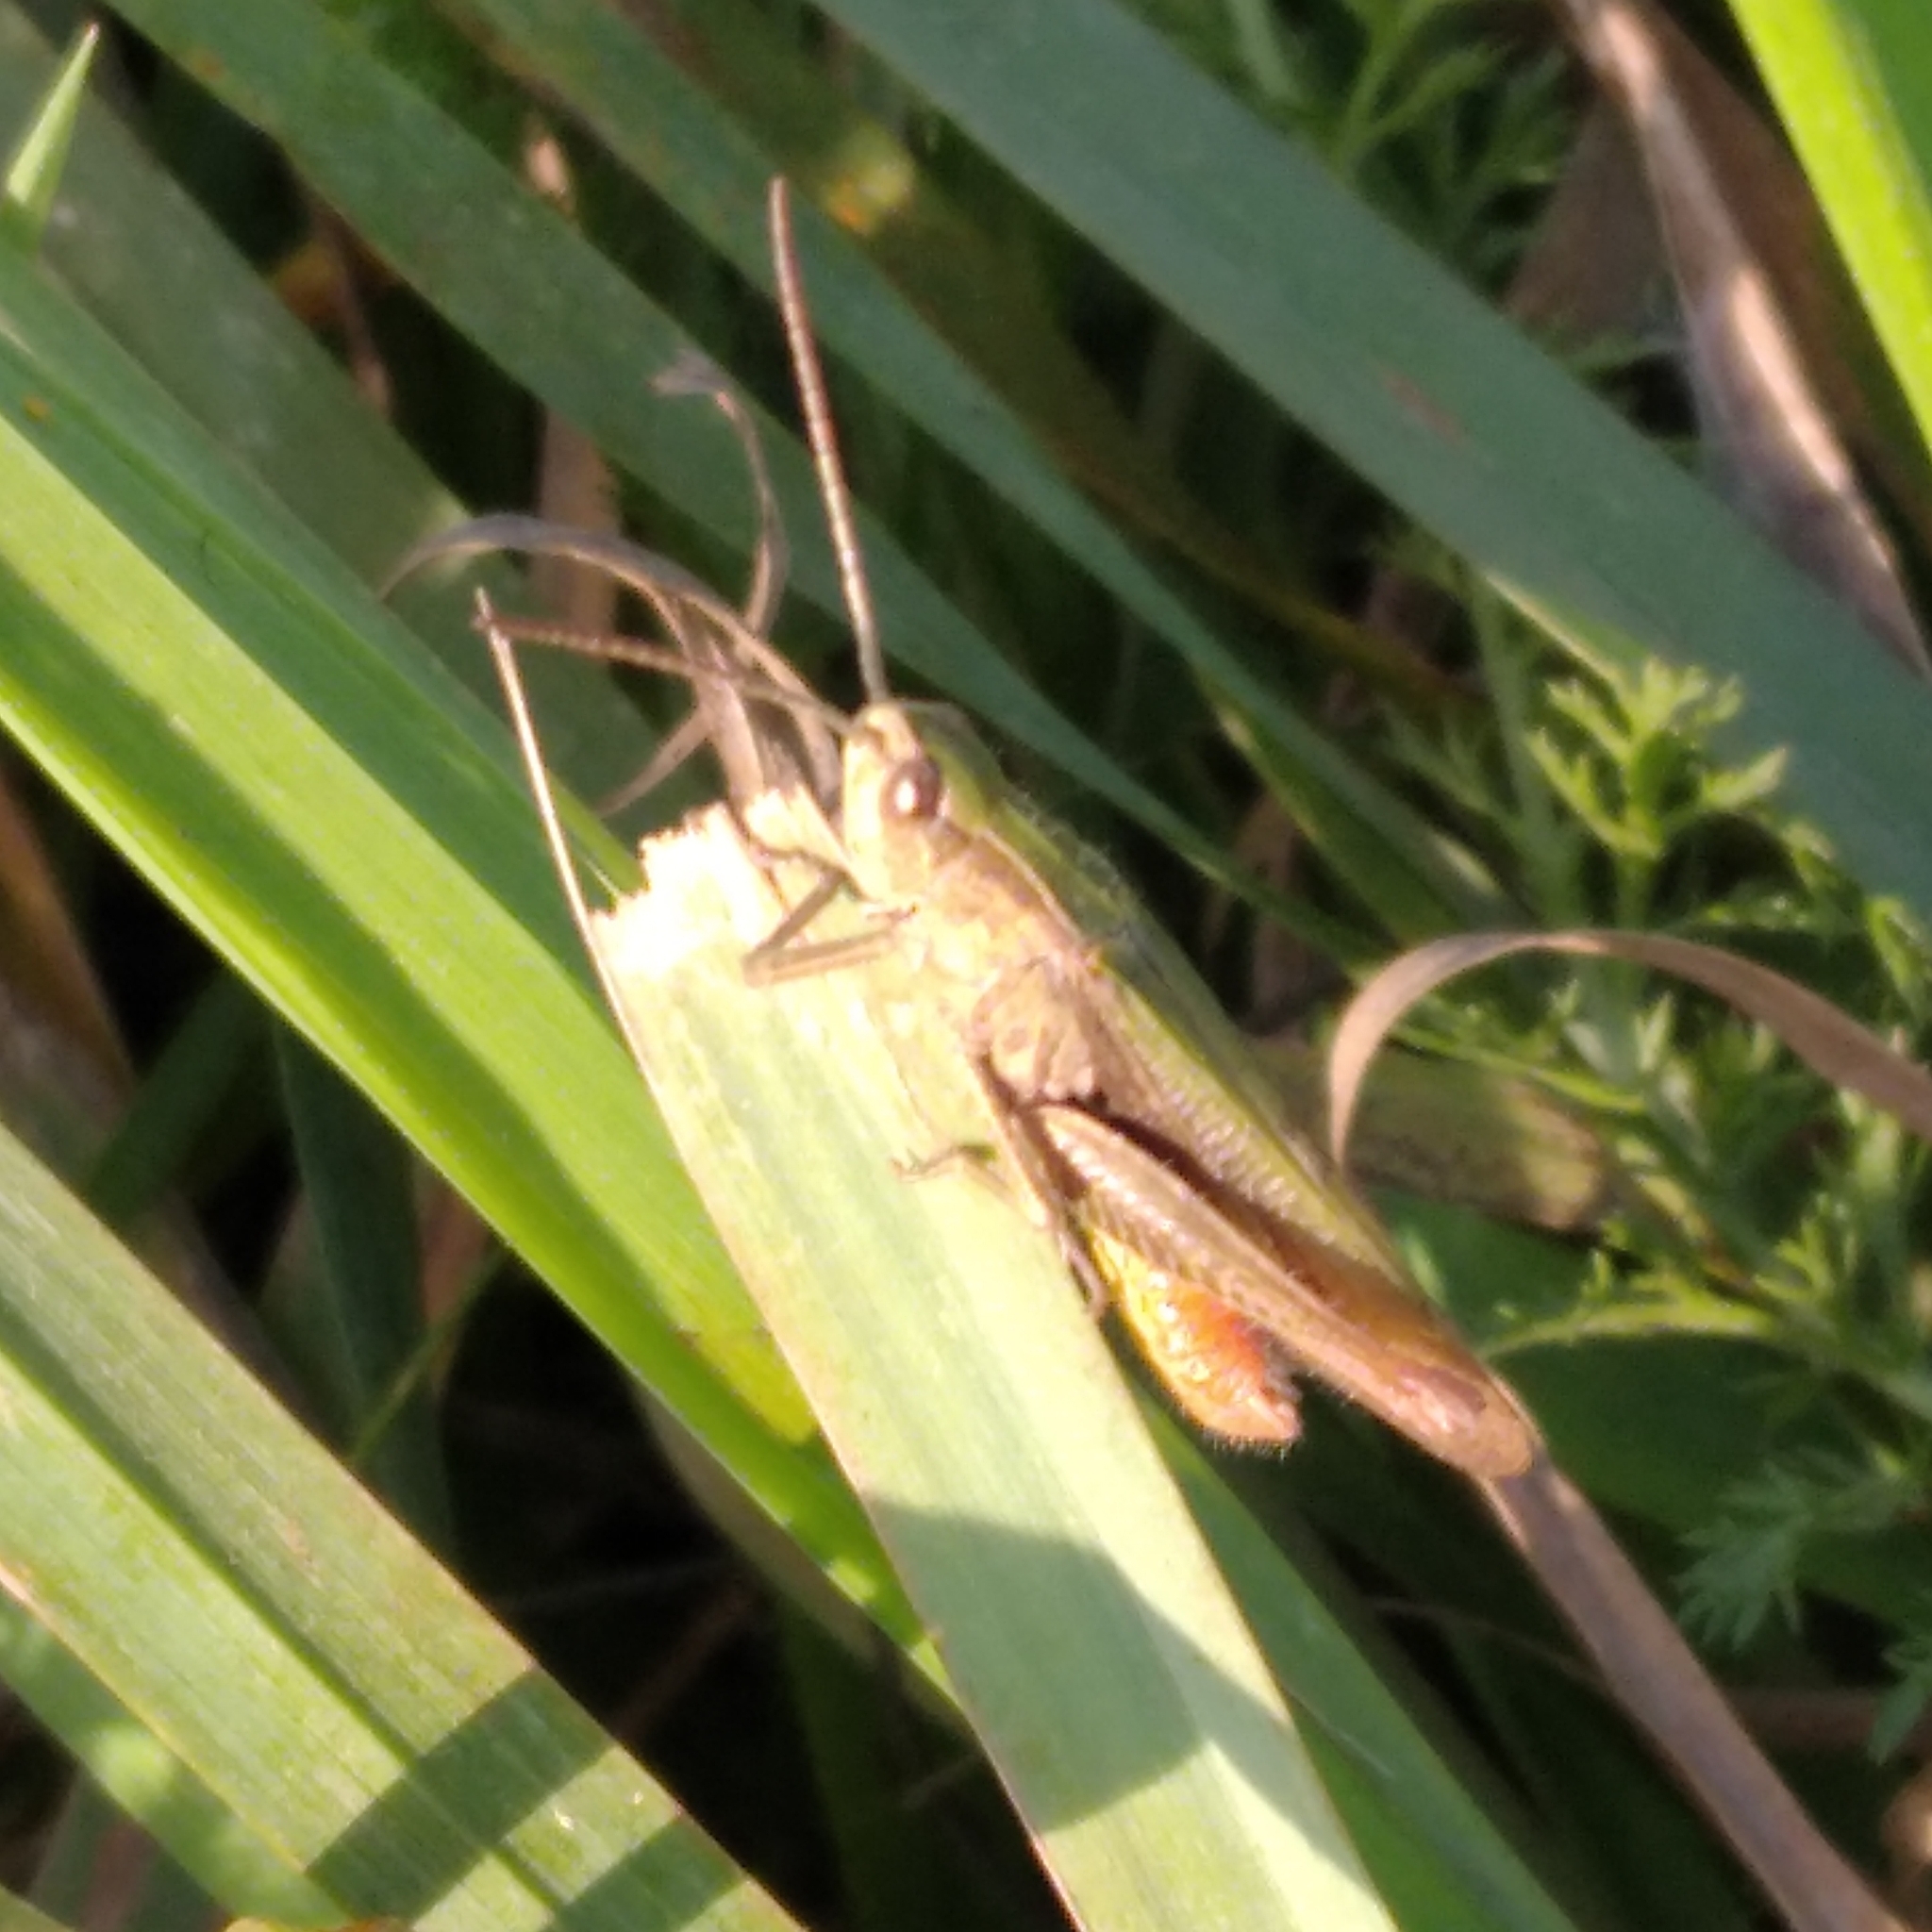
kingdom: Animalia
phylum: Arthropoda
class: Insecta
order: Orthoptera
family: Acrididae
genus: Chorthippus
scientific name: Chorthippus dorsatus
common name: Steppe grasshopper
